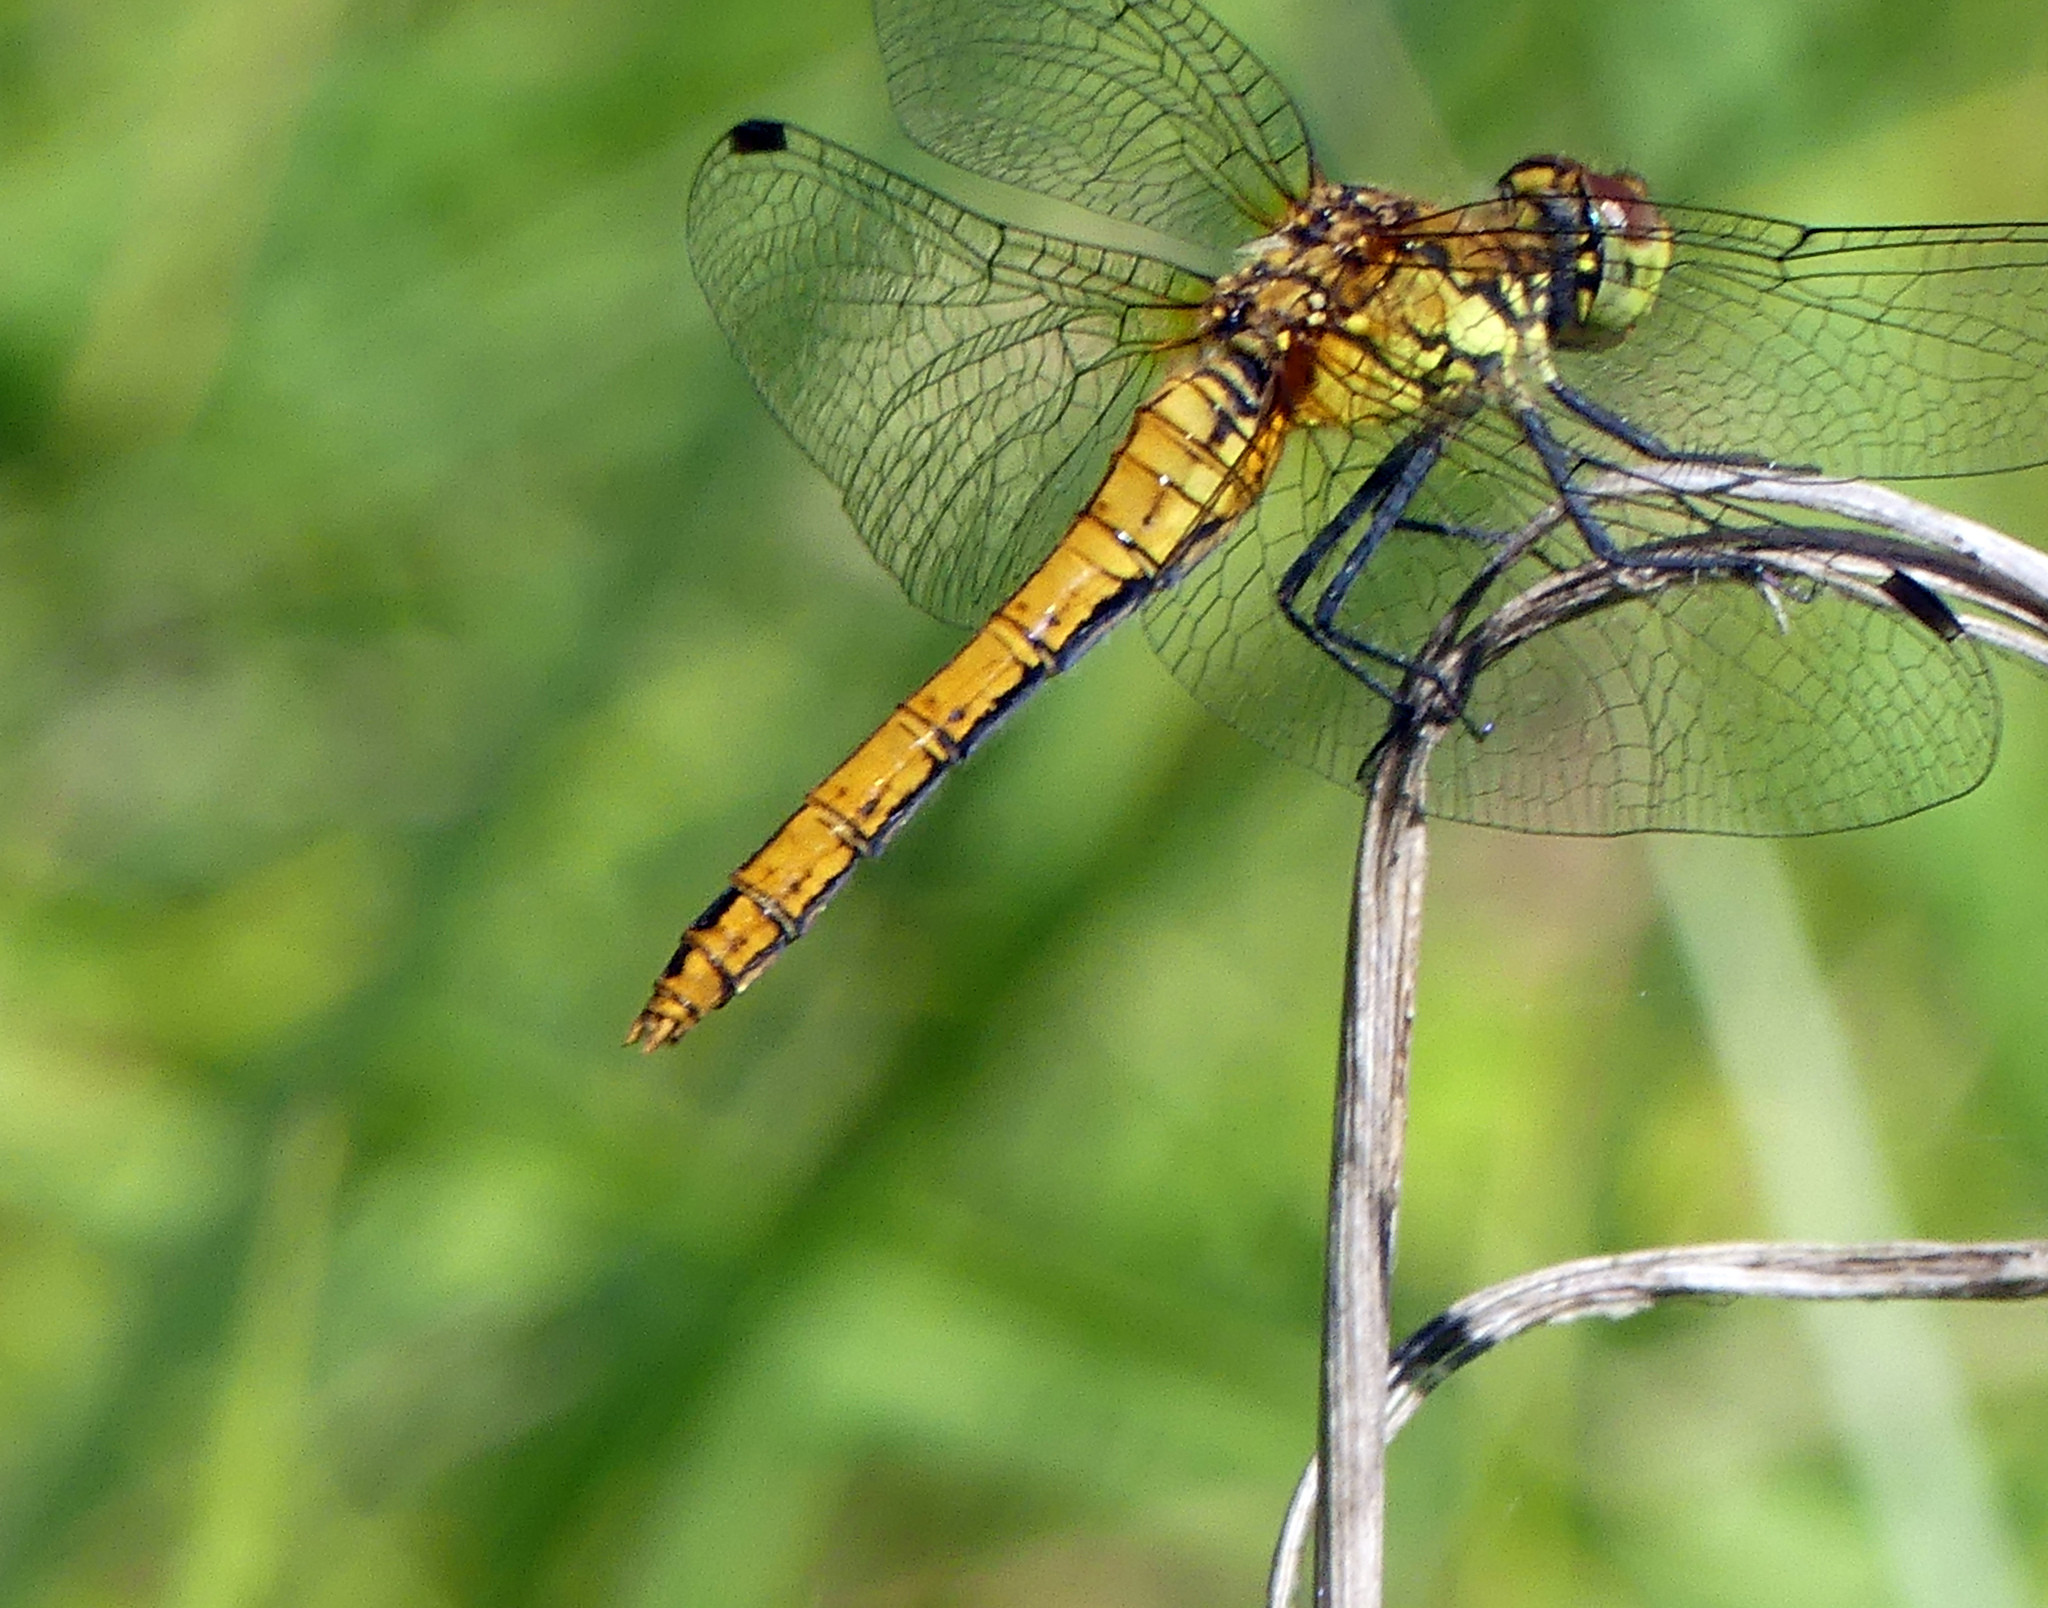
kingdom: Animalia
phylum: Arthropoda
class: Insecta
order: Odonata
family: Libellulidae
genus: Sympetrum
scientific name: Sympetrum sanguineum
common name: Ruddy darter
